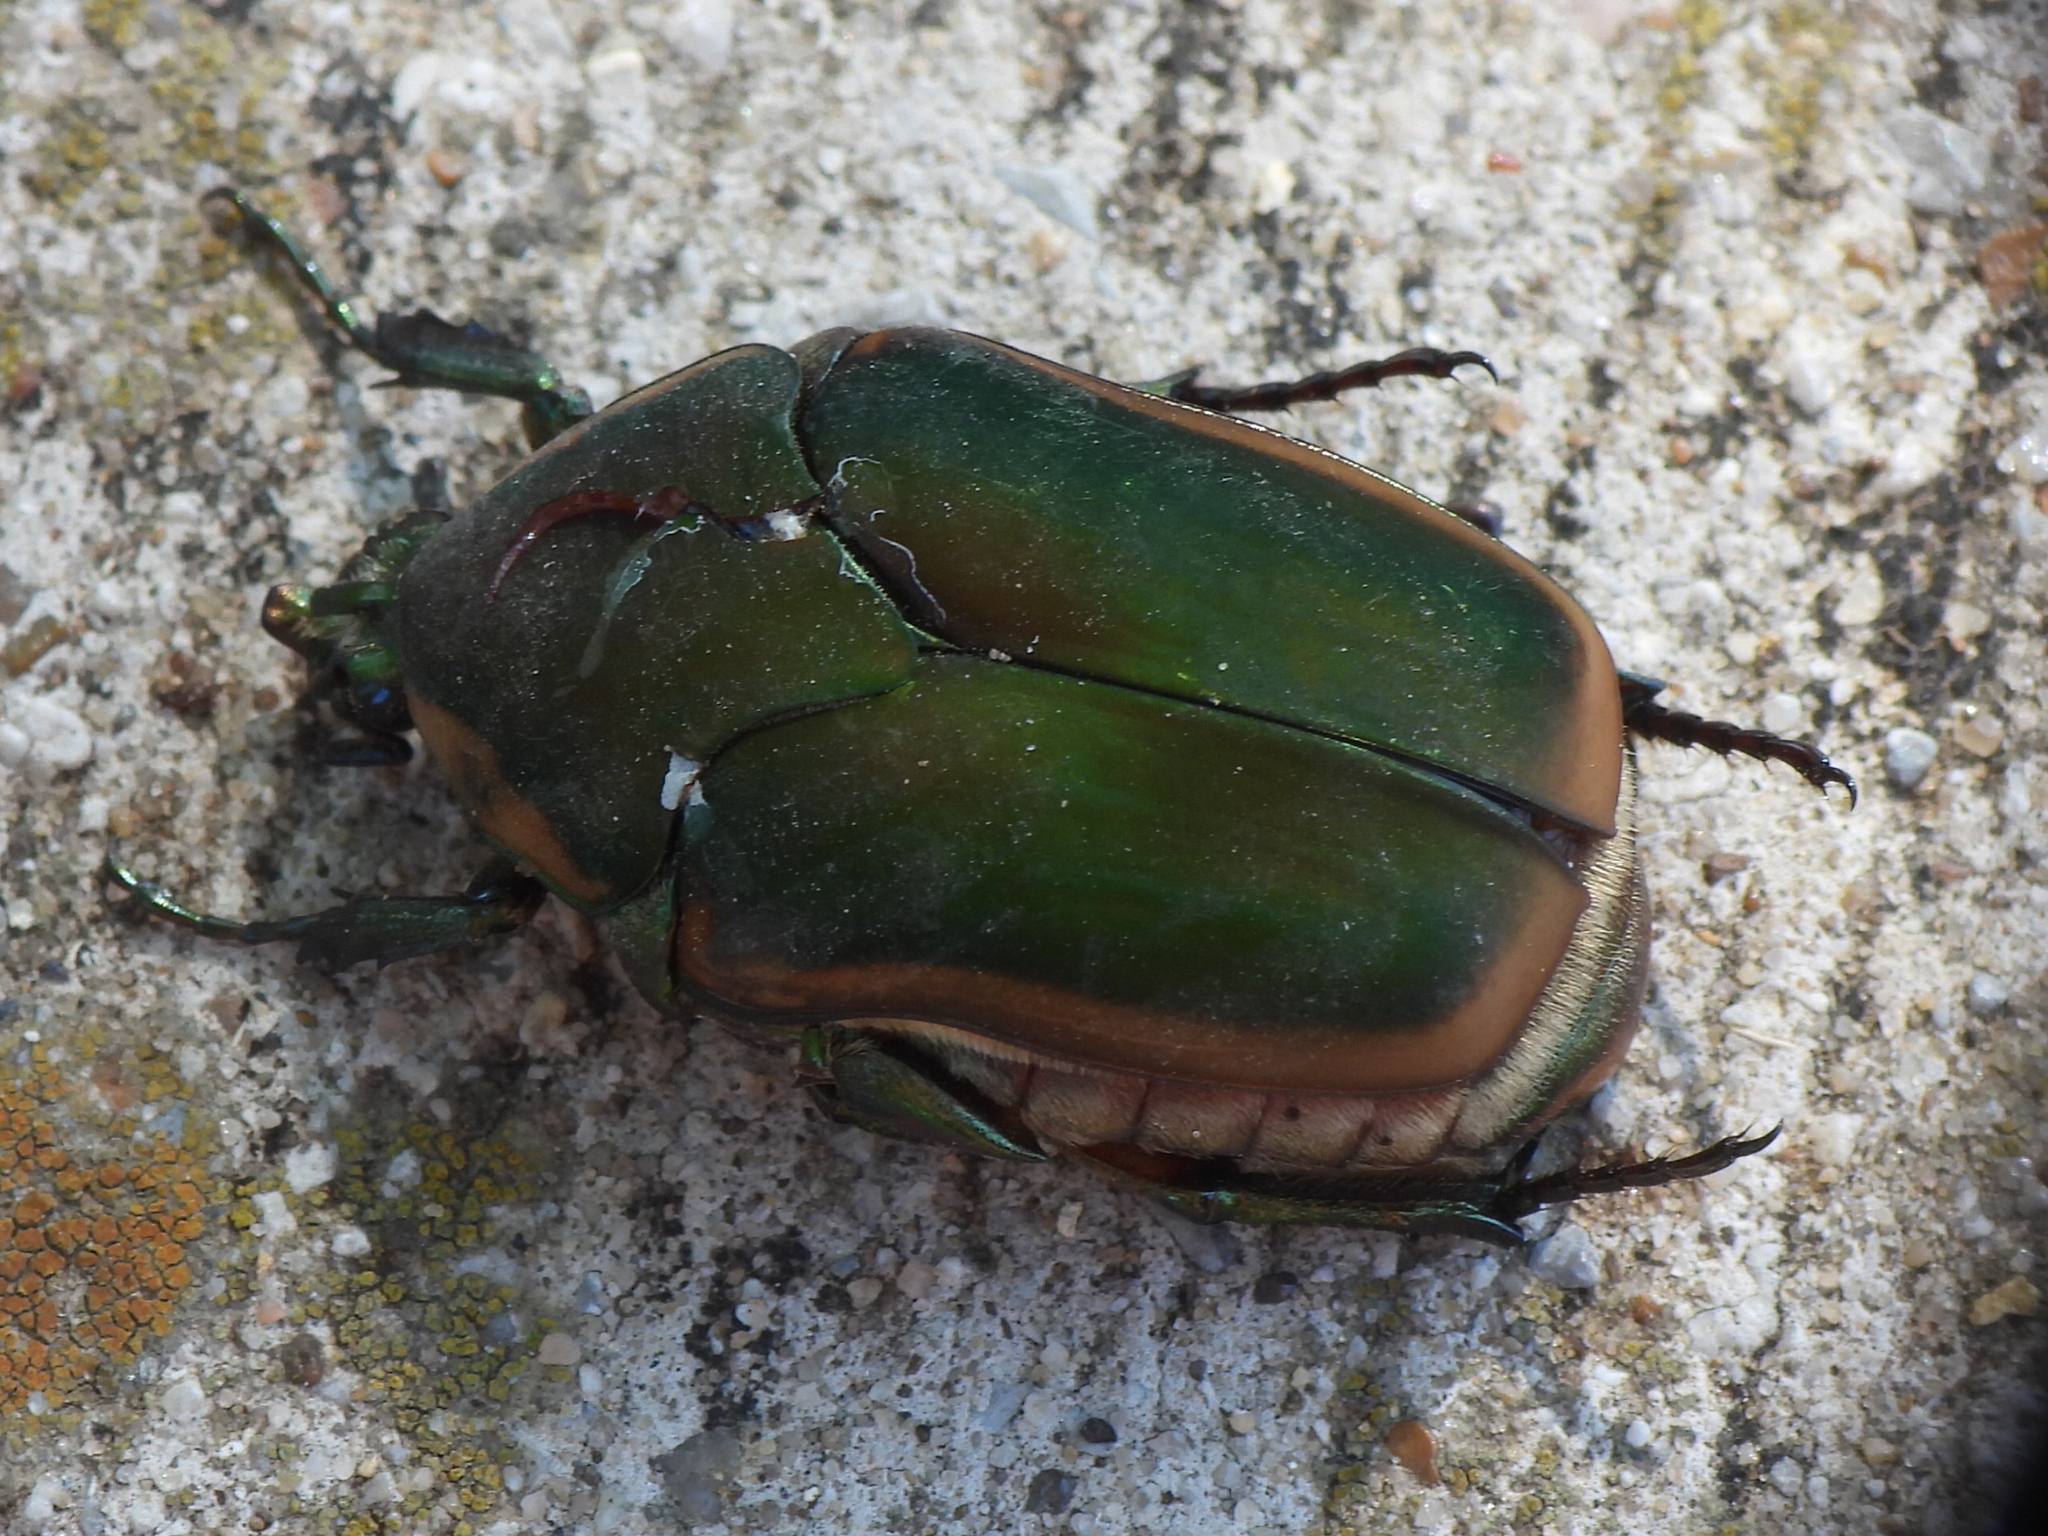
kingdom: Animalia
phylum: Arthropoda
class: Insecta
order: Coleoptera
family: Scarabaeidae
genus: Cotinis
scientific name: Cotinis nitida
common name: Common green june beetle
